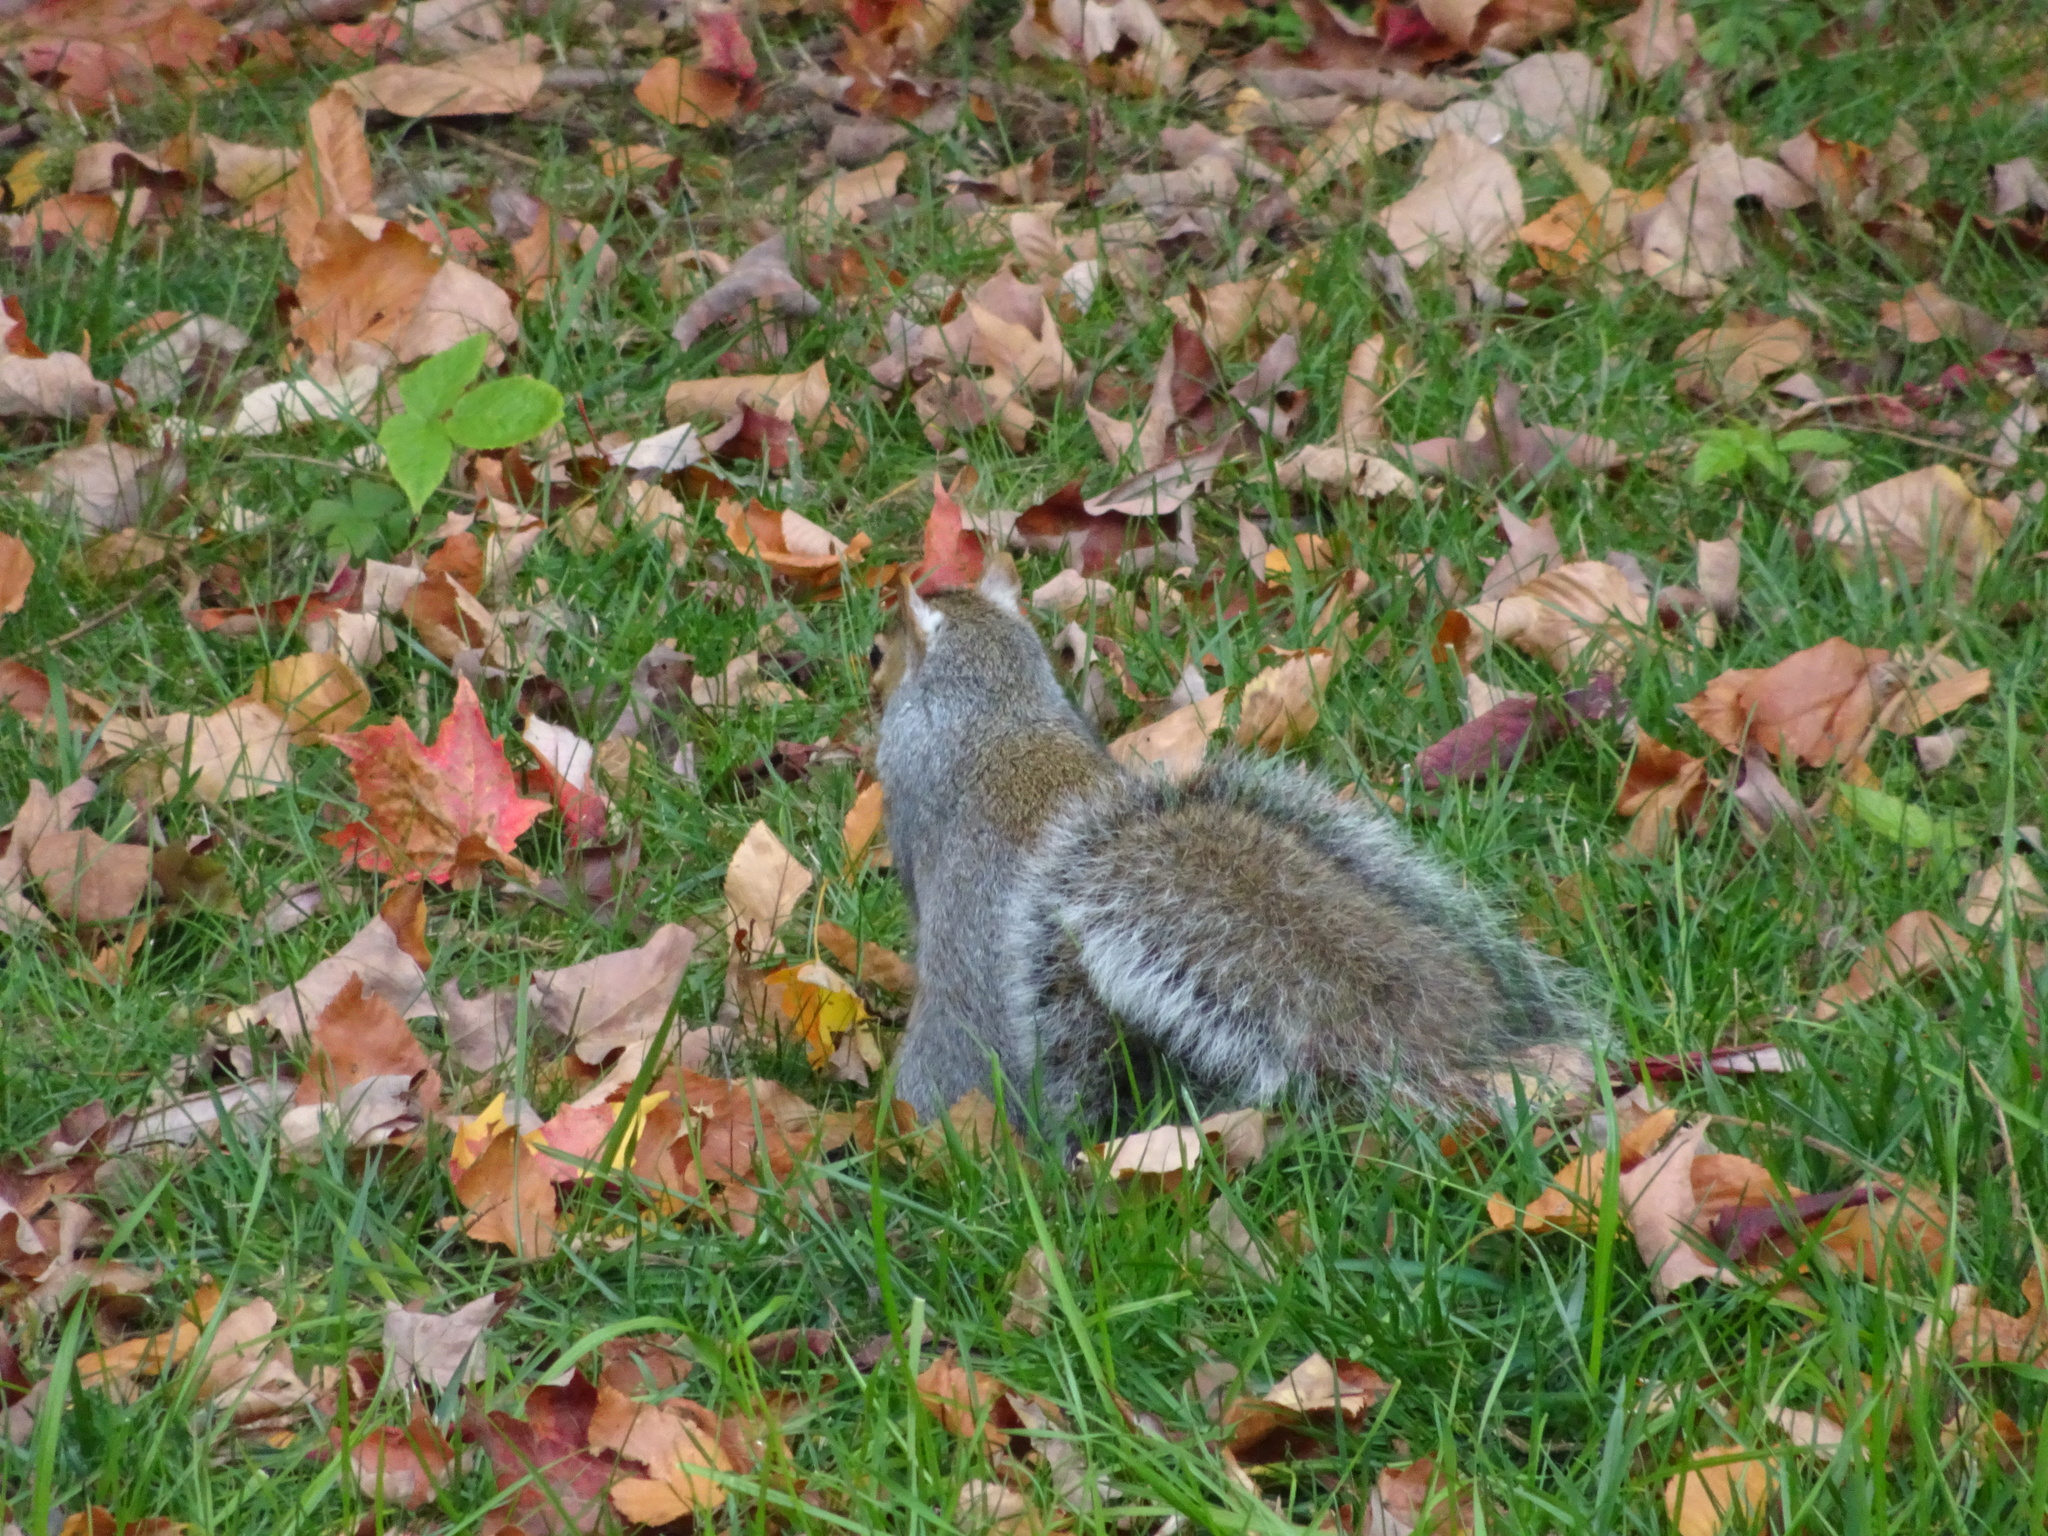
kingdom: Animalia
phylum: Chordata
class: Mammalia
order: Rodentia
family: Sciuridae
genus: Sciurus
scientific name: Sciurus carolinensis
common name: Eastern gray squirrel
